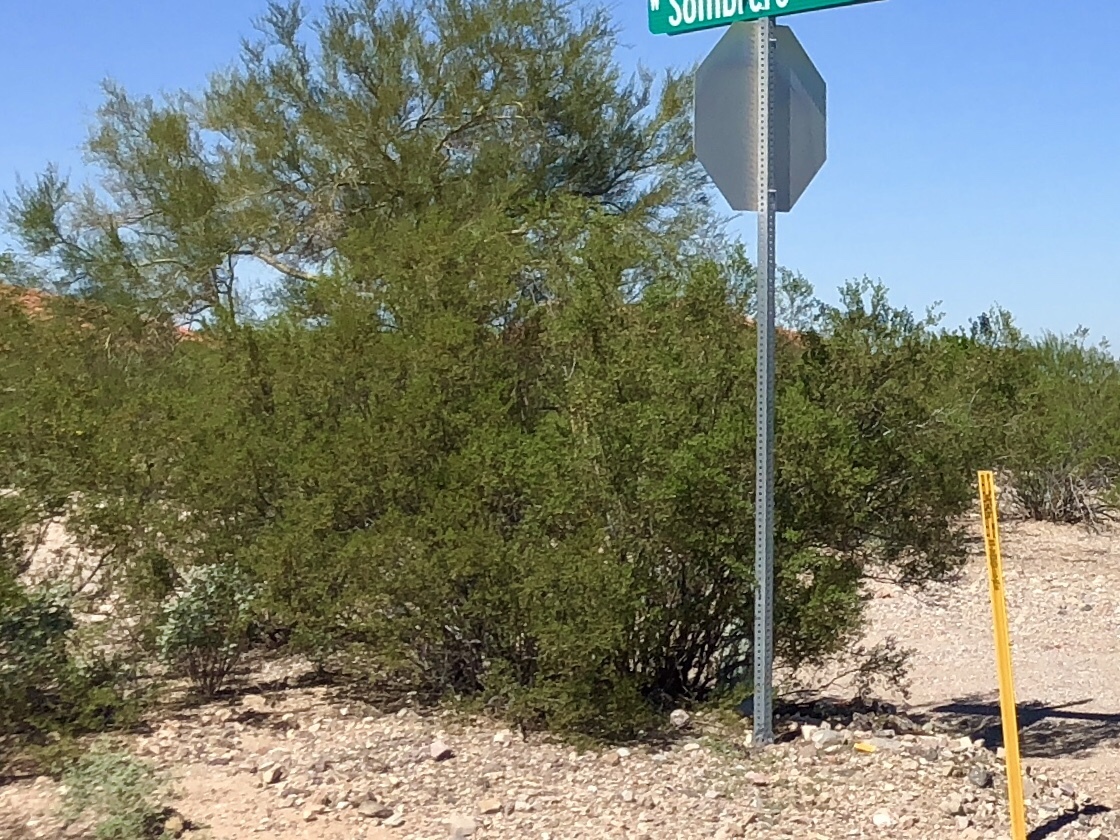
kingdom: Plantae
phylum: Tracheophyta
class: Magnoliopsida
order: Zygophyllales
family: Zygophyllaceae
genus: Larrea
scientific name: Larrea tridentata
